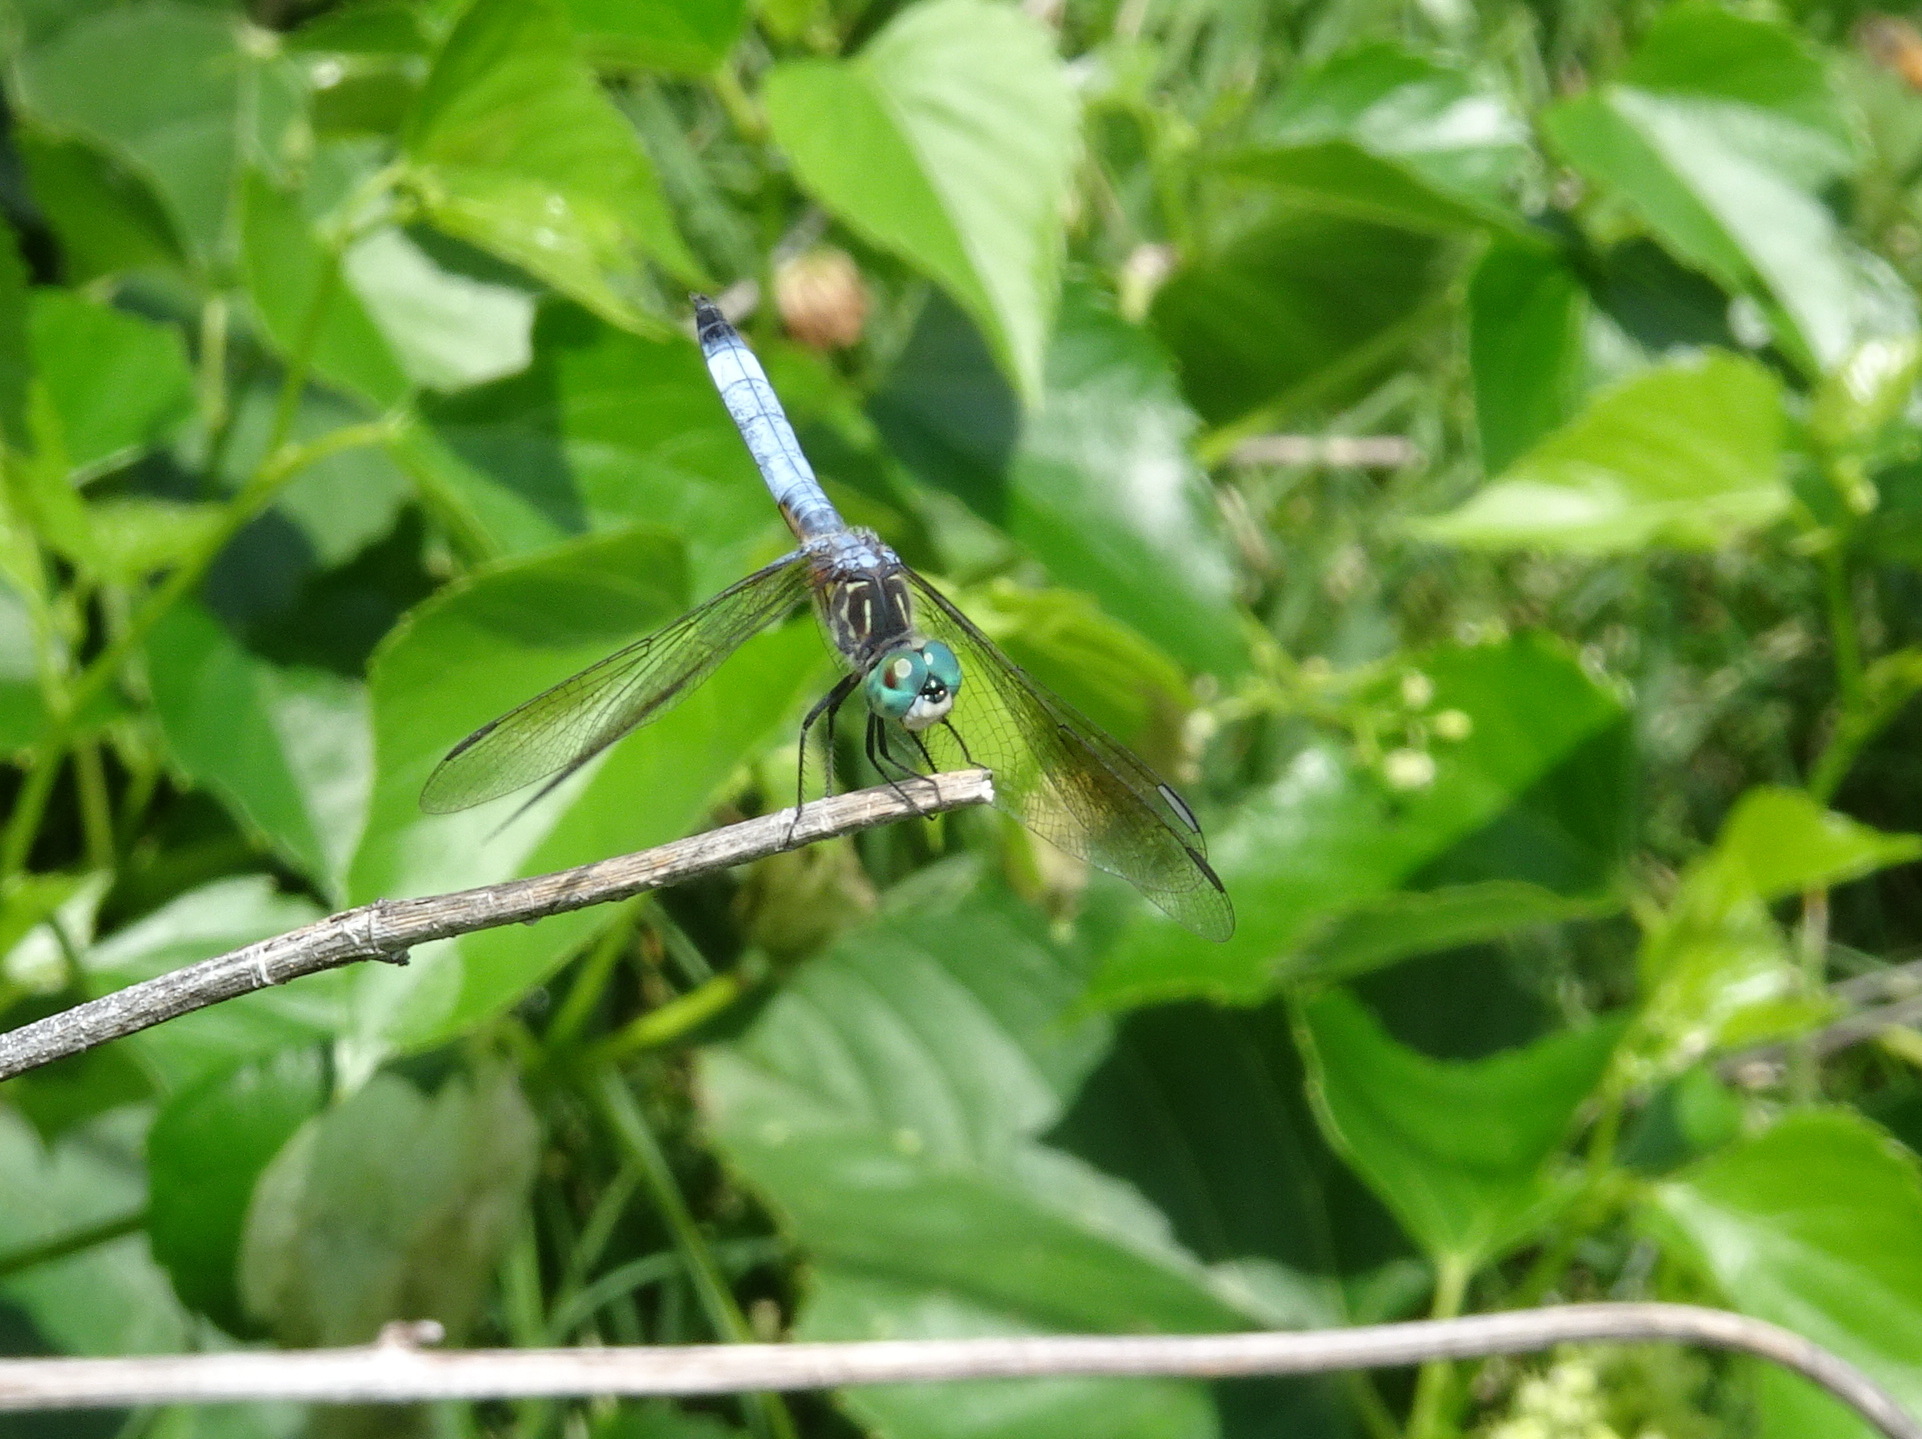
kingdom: Animalia
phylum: Arthropoda
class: Insecta
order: Odonata
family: Libellulidae
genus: Pachydiplax
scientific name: Pachydiplax longipennis
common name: Blue dasher
